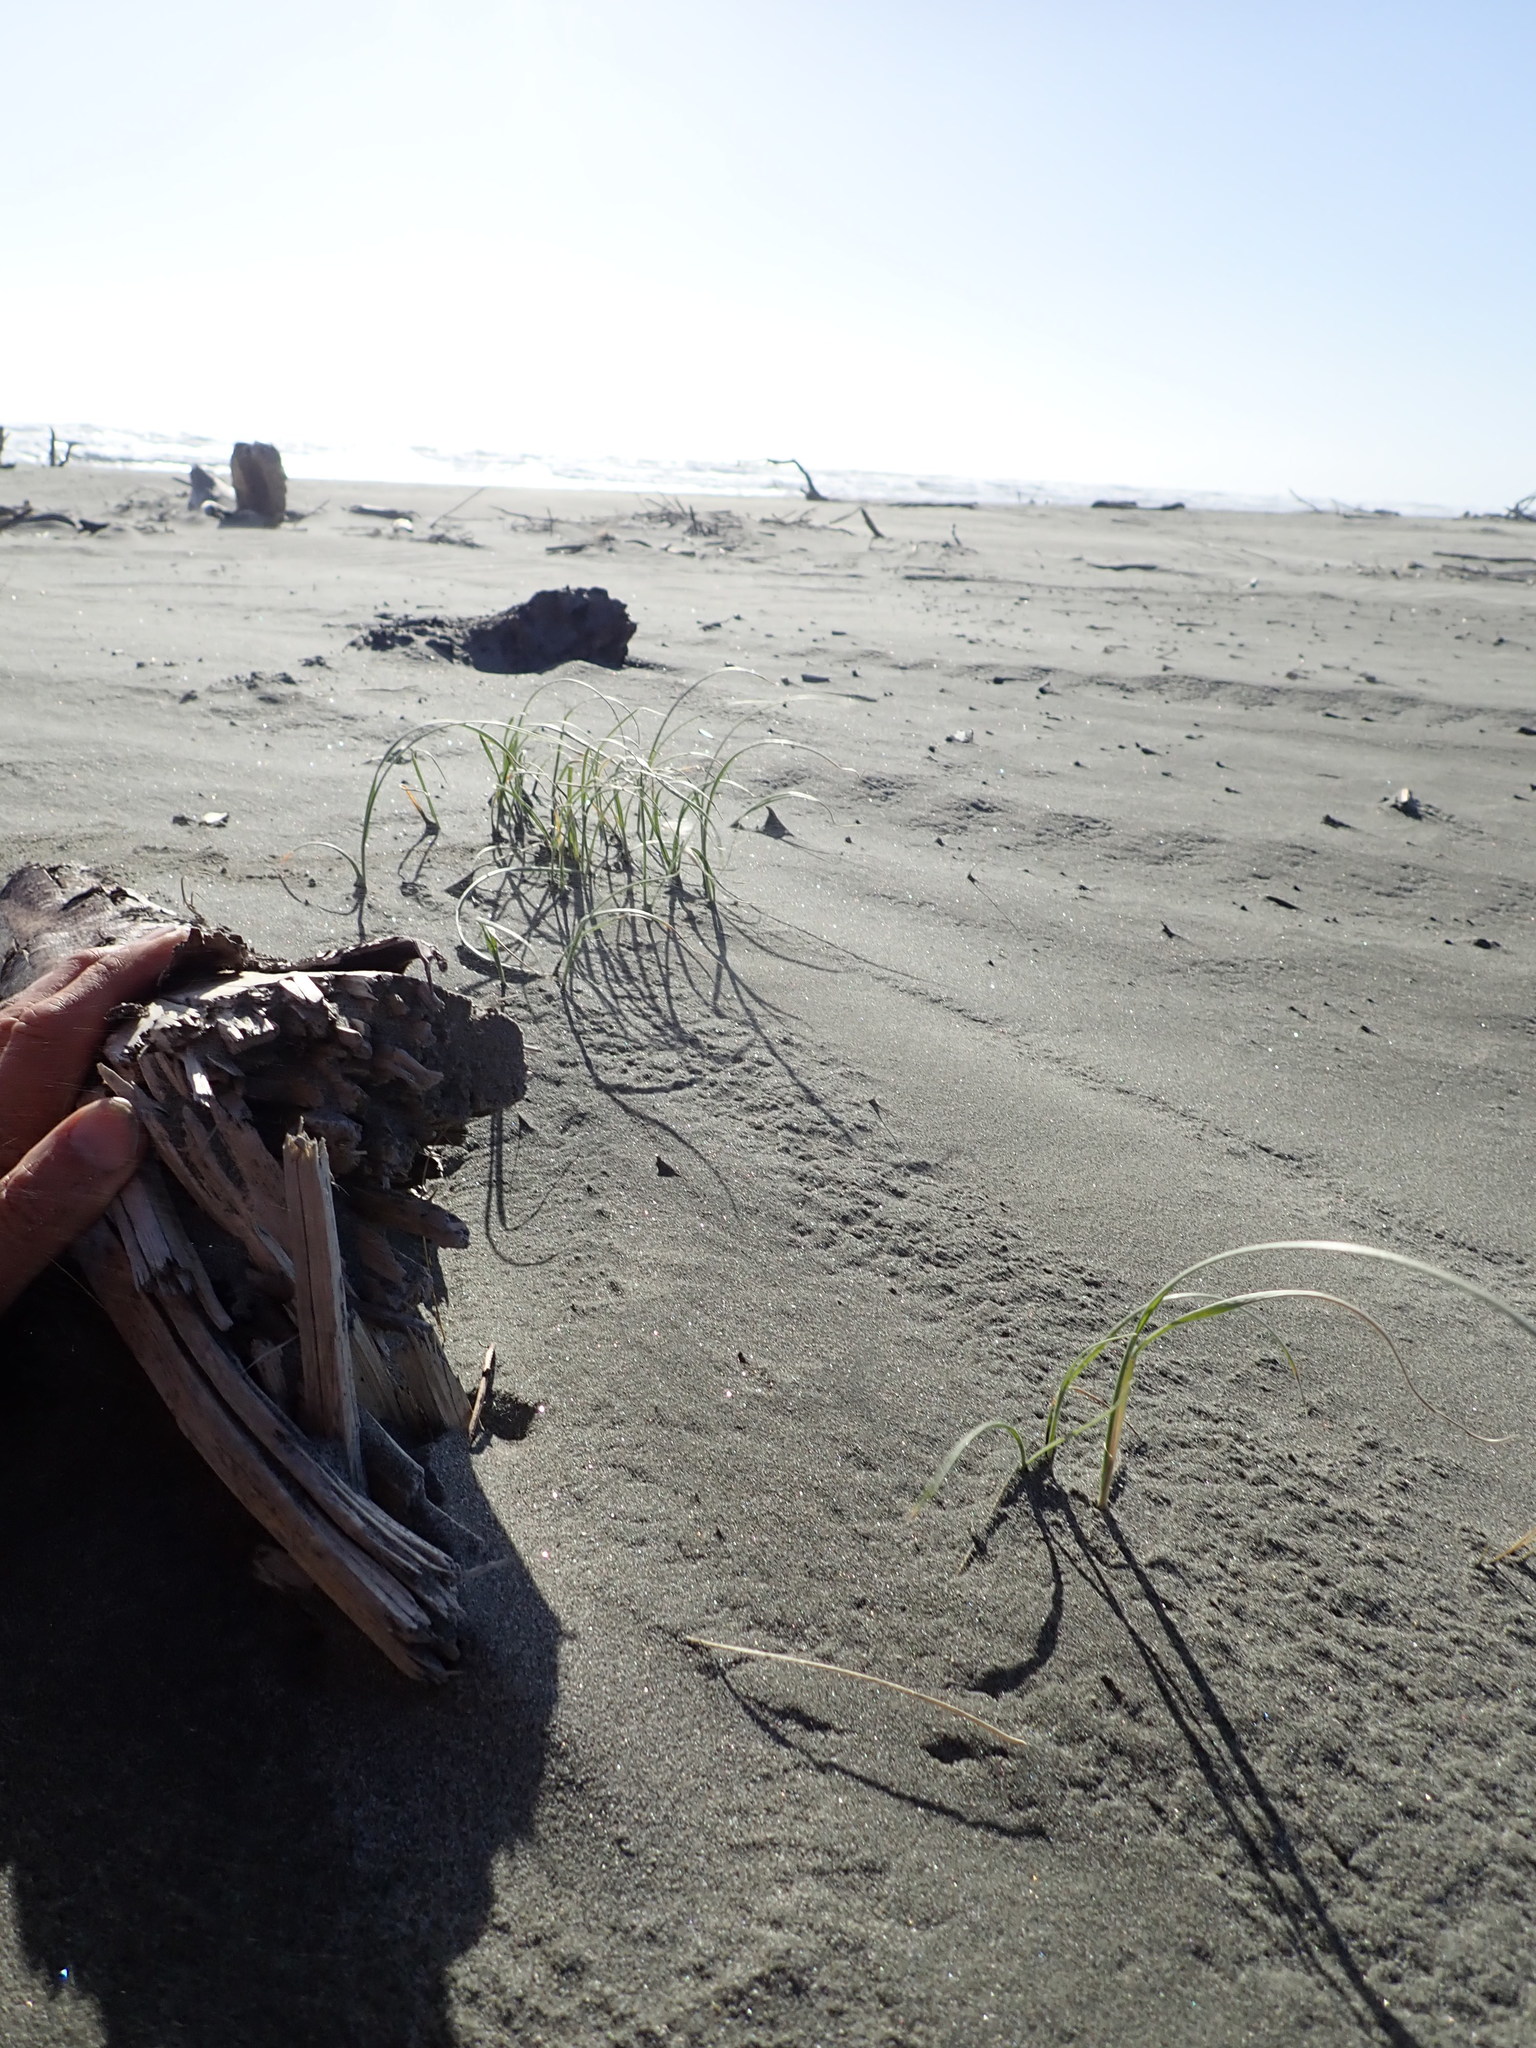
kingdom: Plantae
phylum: Tracheophyta
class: Liliopsida
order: Poales
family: Poaceae
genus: Spinifex
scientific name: Spinifex sericeus
